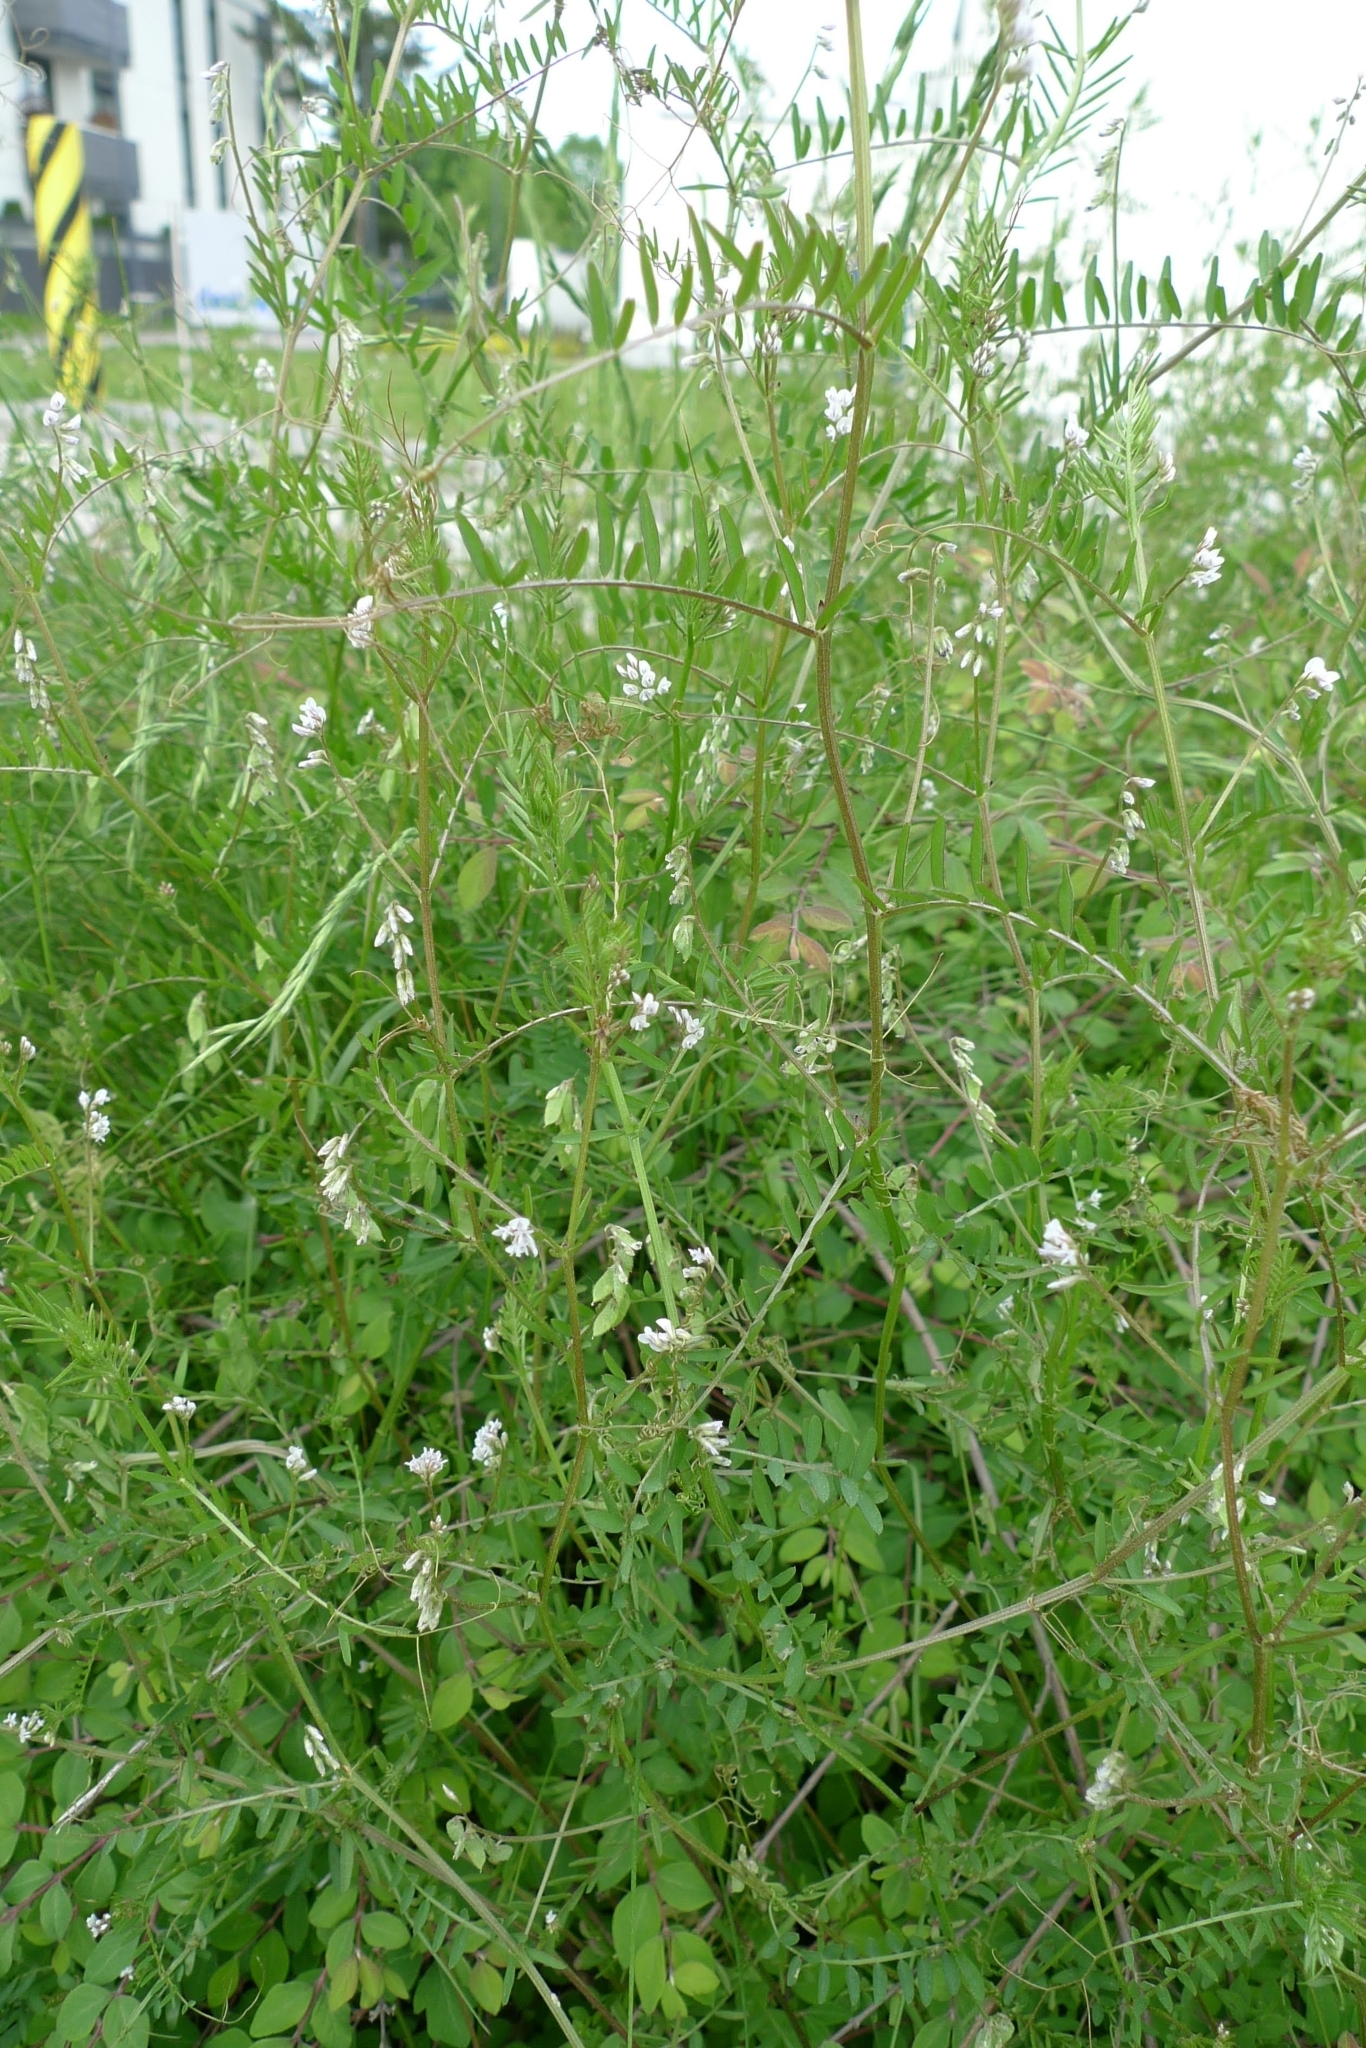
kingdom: Plantae
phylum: Tracheophyta
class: Magnoliopsida
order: Fabales
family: Fabaceae
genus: Vicia
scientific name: Vicia hirsuta
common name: Tiny vetch
